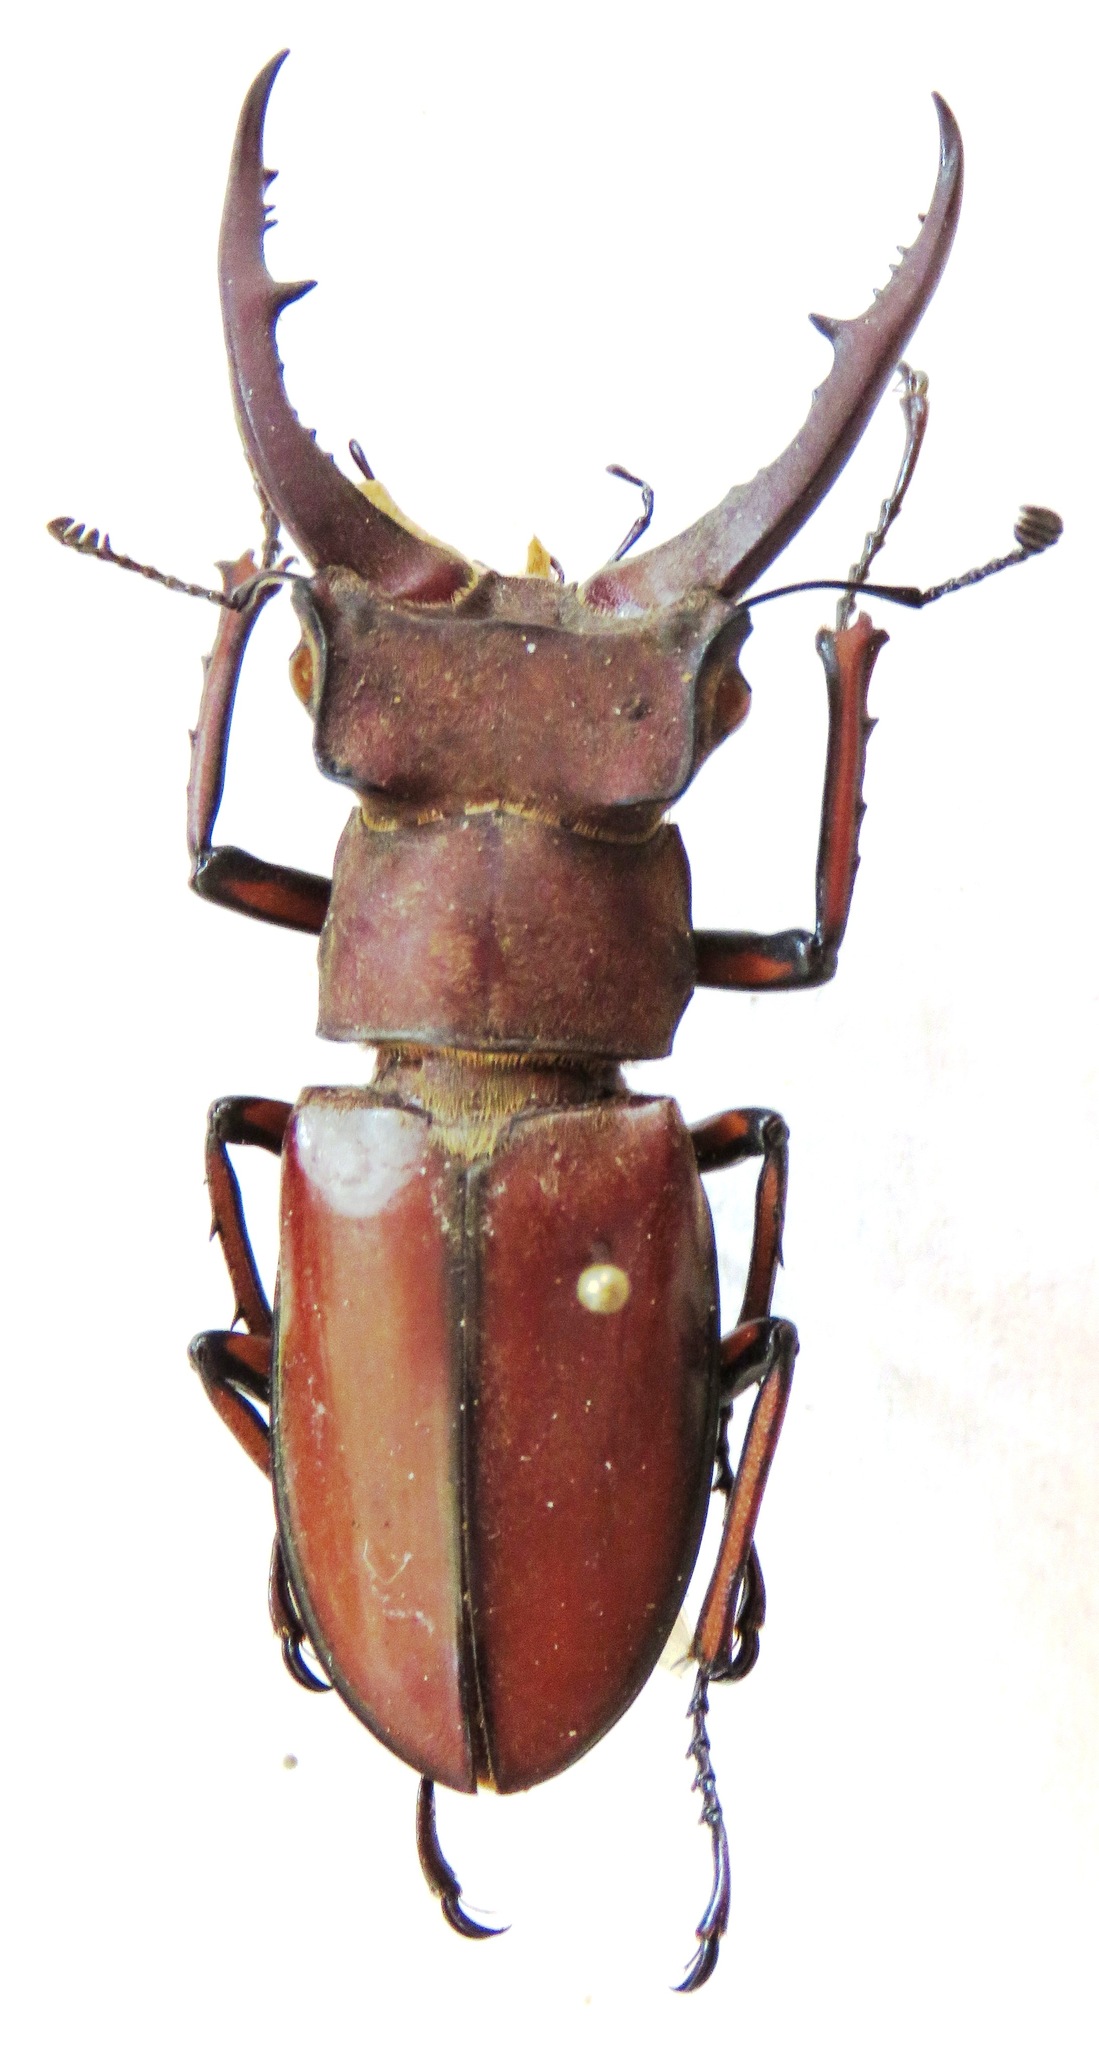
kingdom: Animalia
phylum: Arthropoda
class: Insecta
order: Coleoptera
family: Lucanidae
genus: Lucanus
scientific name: Lucanus luci
